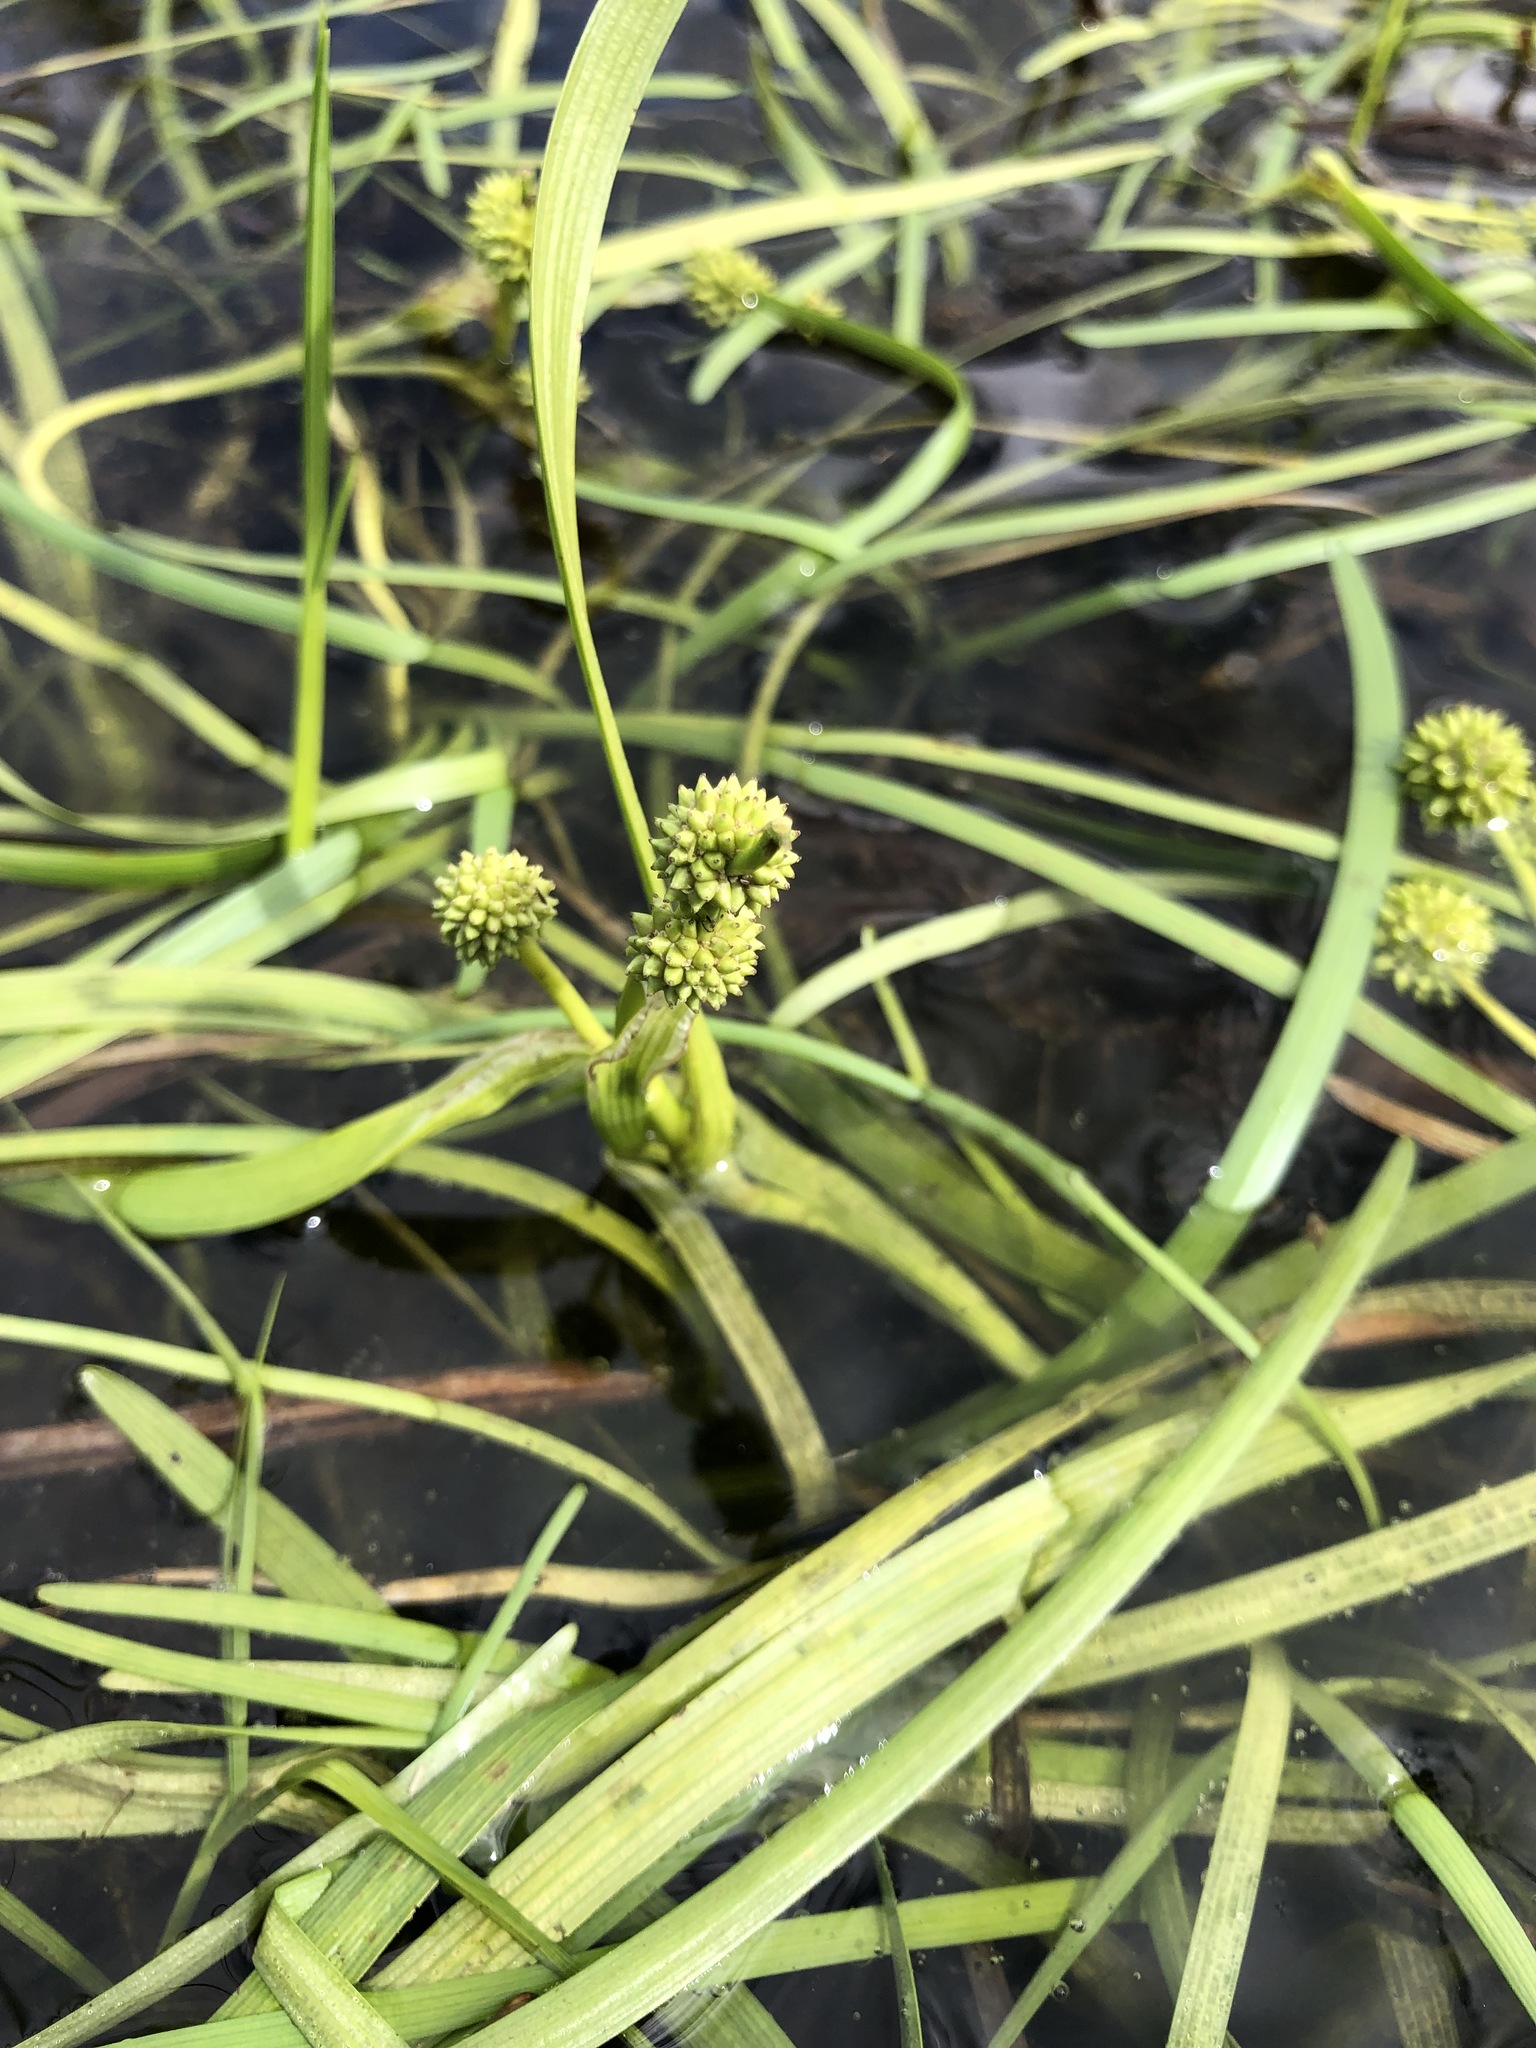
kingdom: Plantae
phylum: Tracheophyta
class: Liliopsida
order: Poales
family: Typhaceae
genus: Sparganium
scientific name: Sparganium hyperboreum
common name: Arctic burreed
